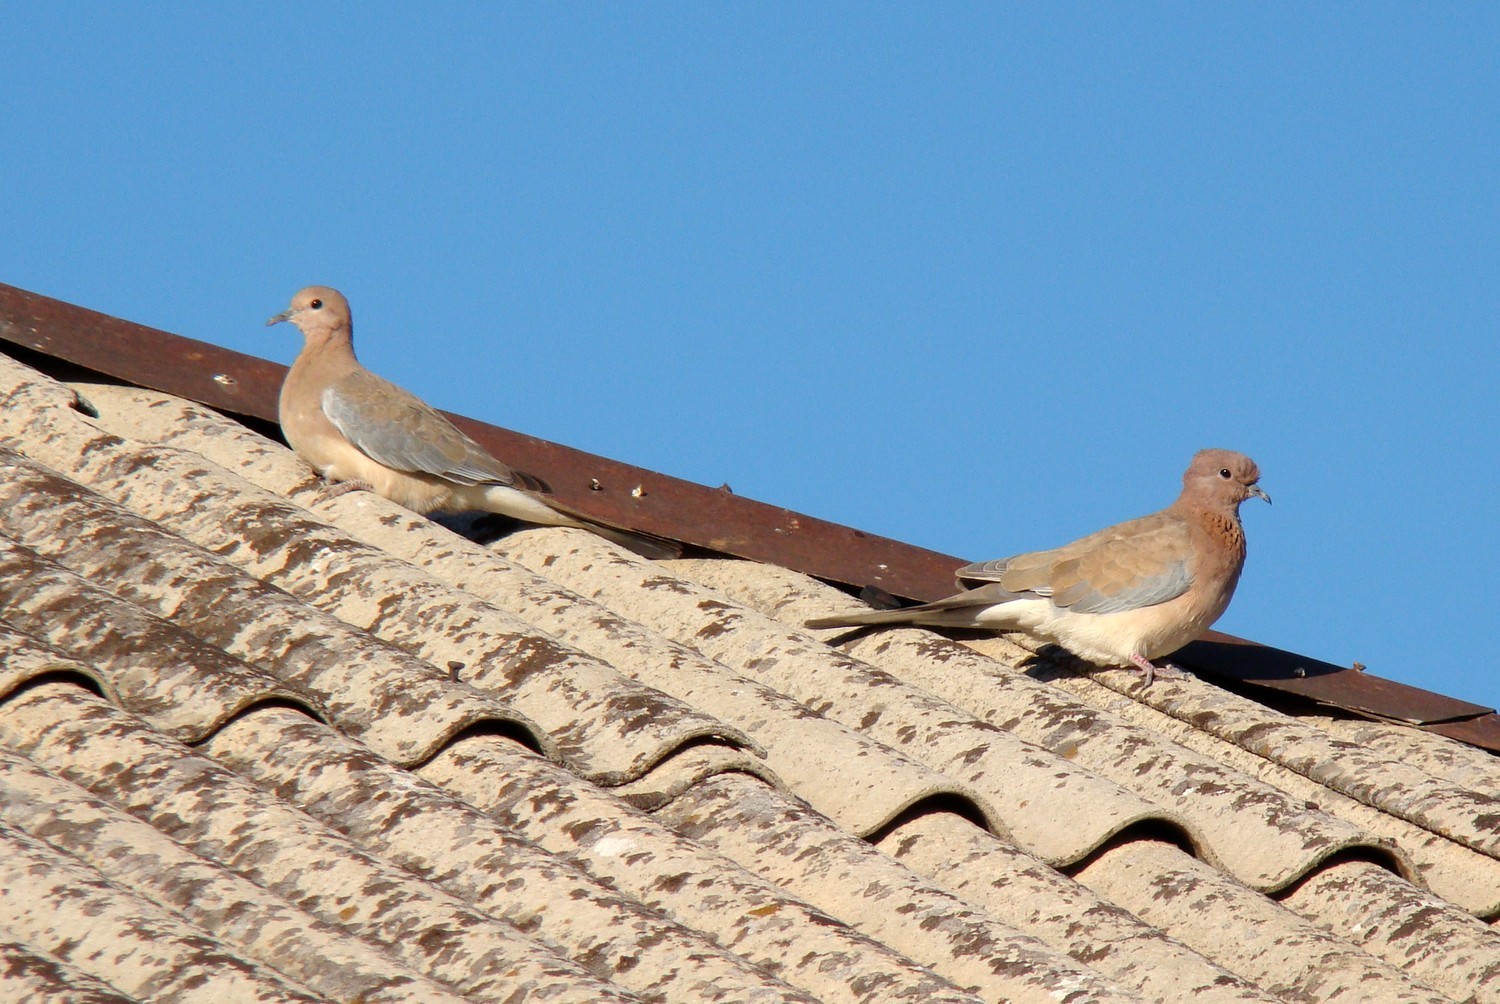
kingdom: Animalia
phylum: Chordata
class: Aves
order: Columbiformes
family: Columbidae
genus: Spilopelia
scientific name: Spilopelia senegalensis
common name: Laughing dove
